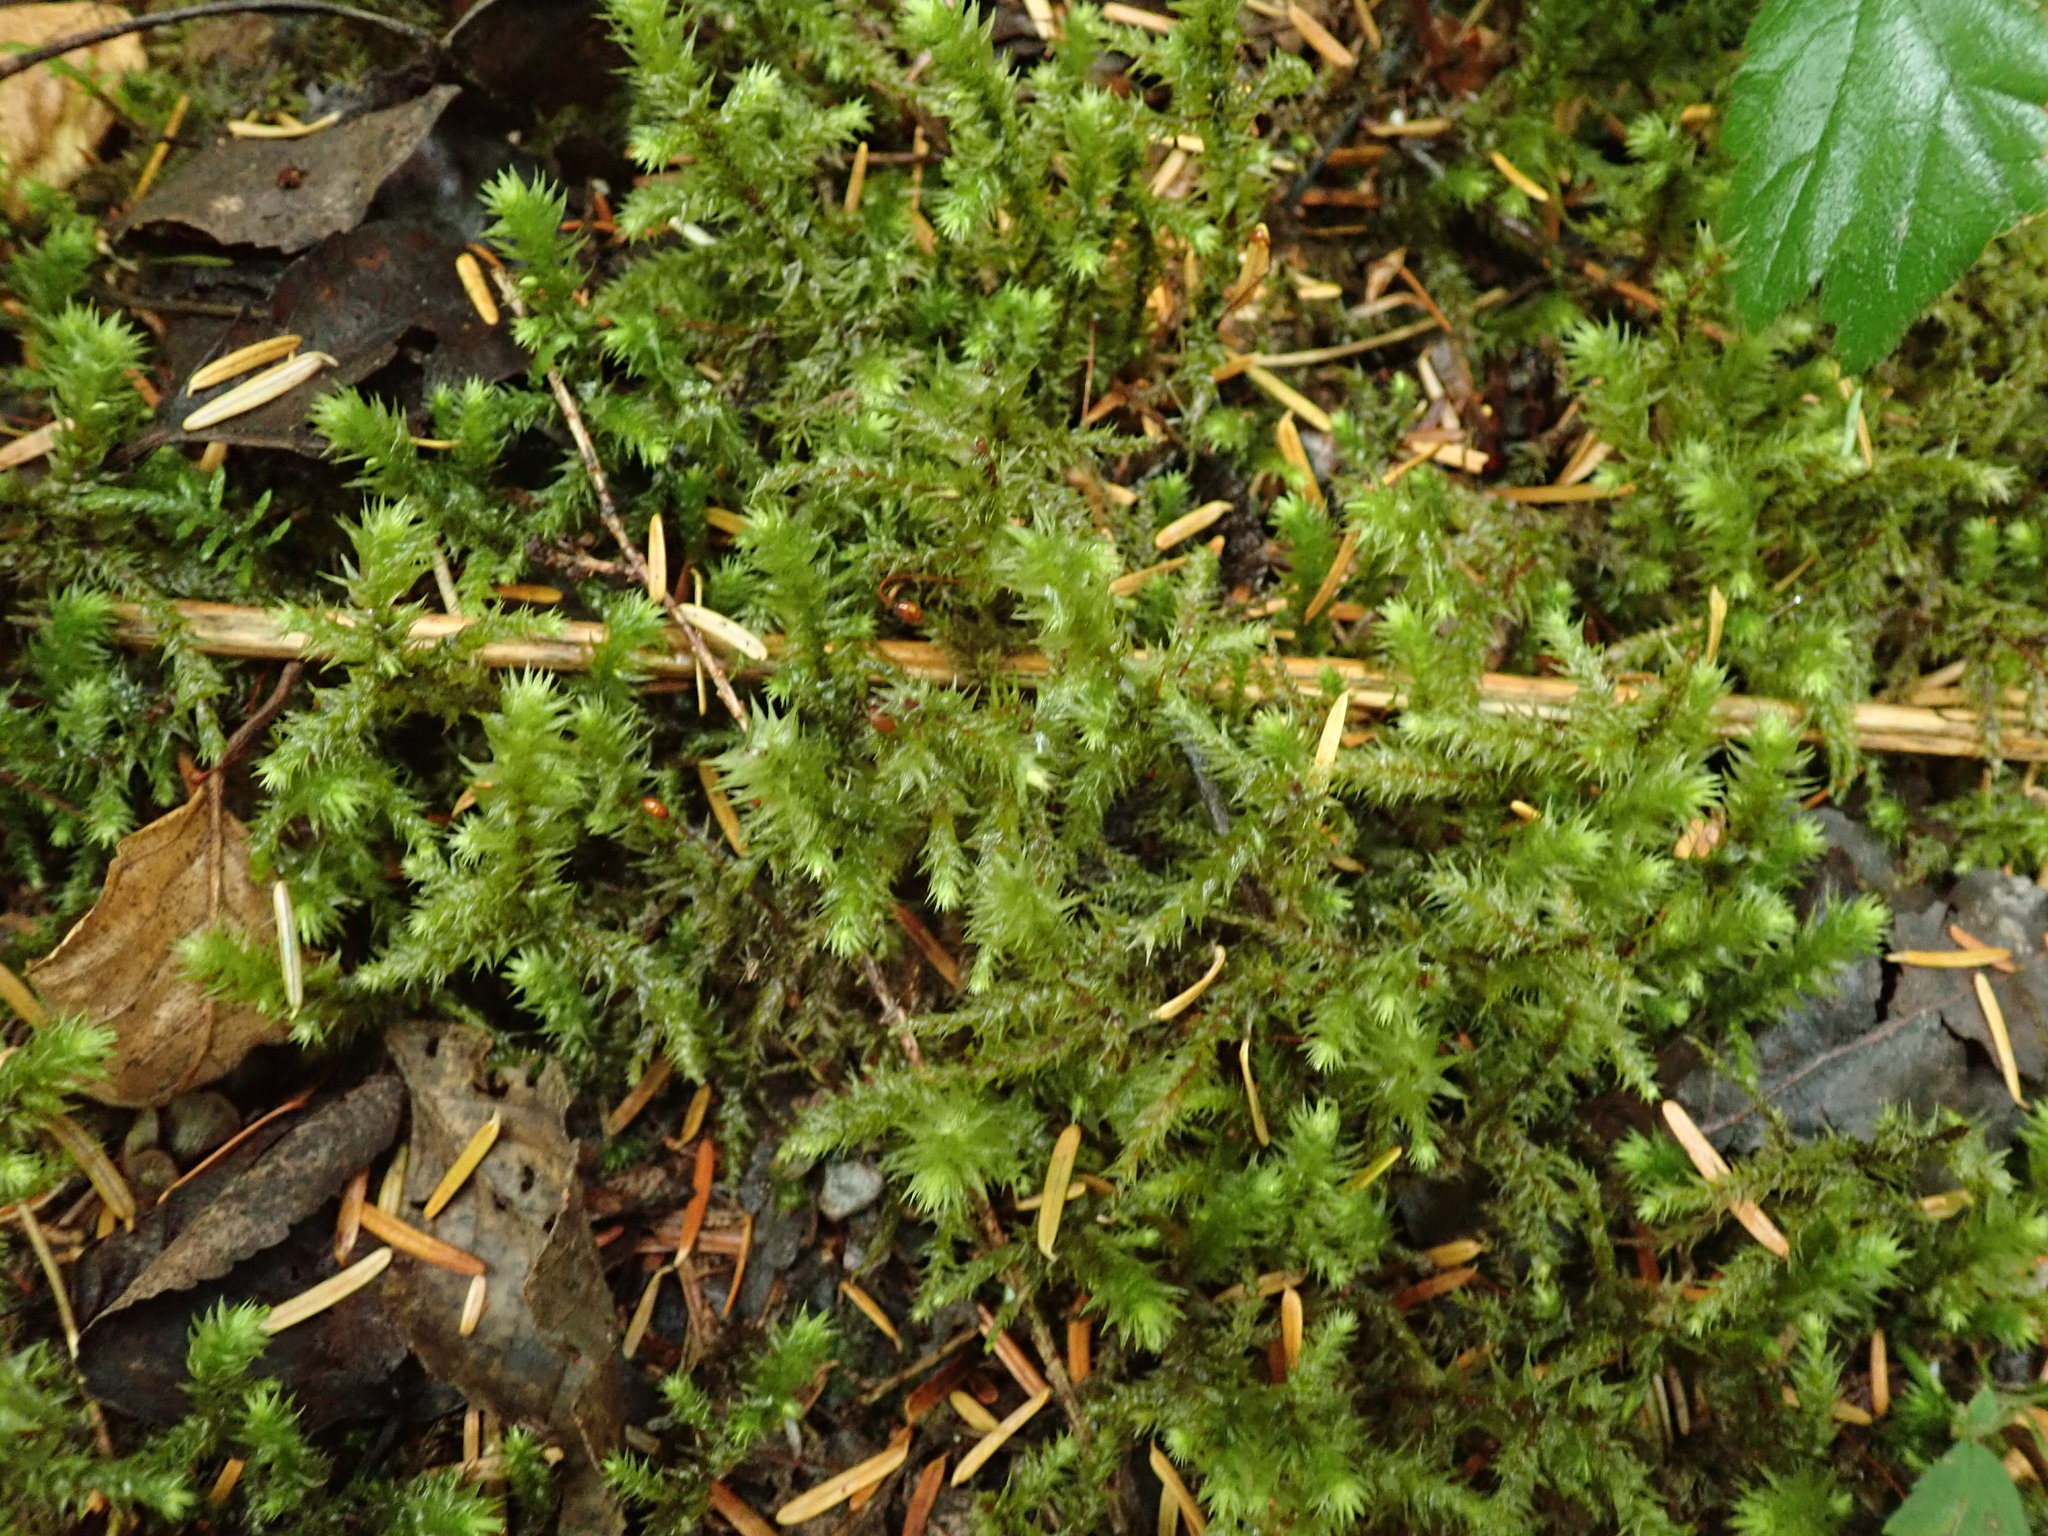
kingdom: Plantae
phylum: Bryophyta
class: Bryopsida
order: Hypnales
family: Hylocomiaceae
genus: Hylocomiadelphus
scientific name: Hylocomiadelphus triquetrus
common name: Rough goose neck moss
